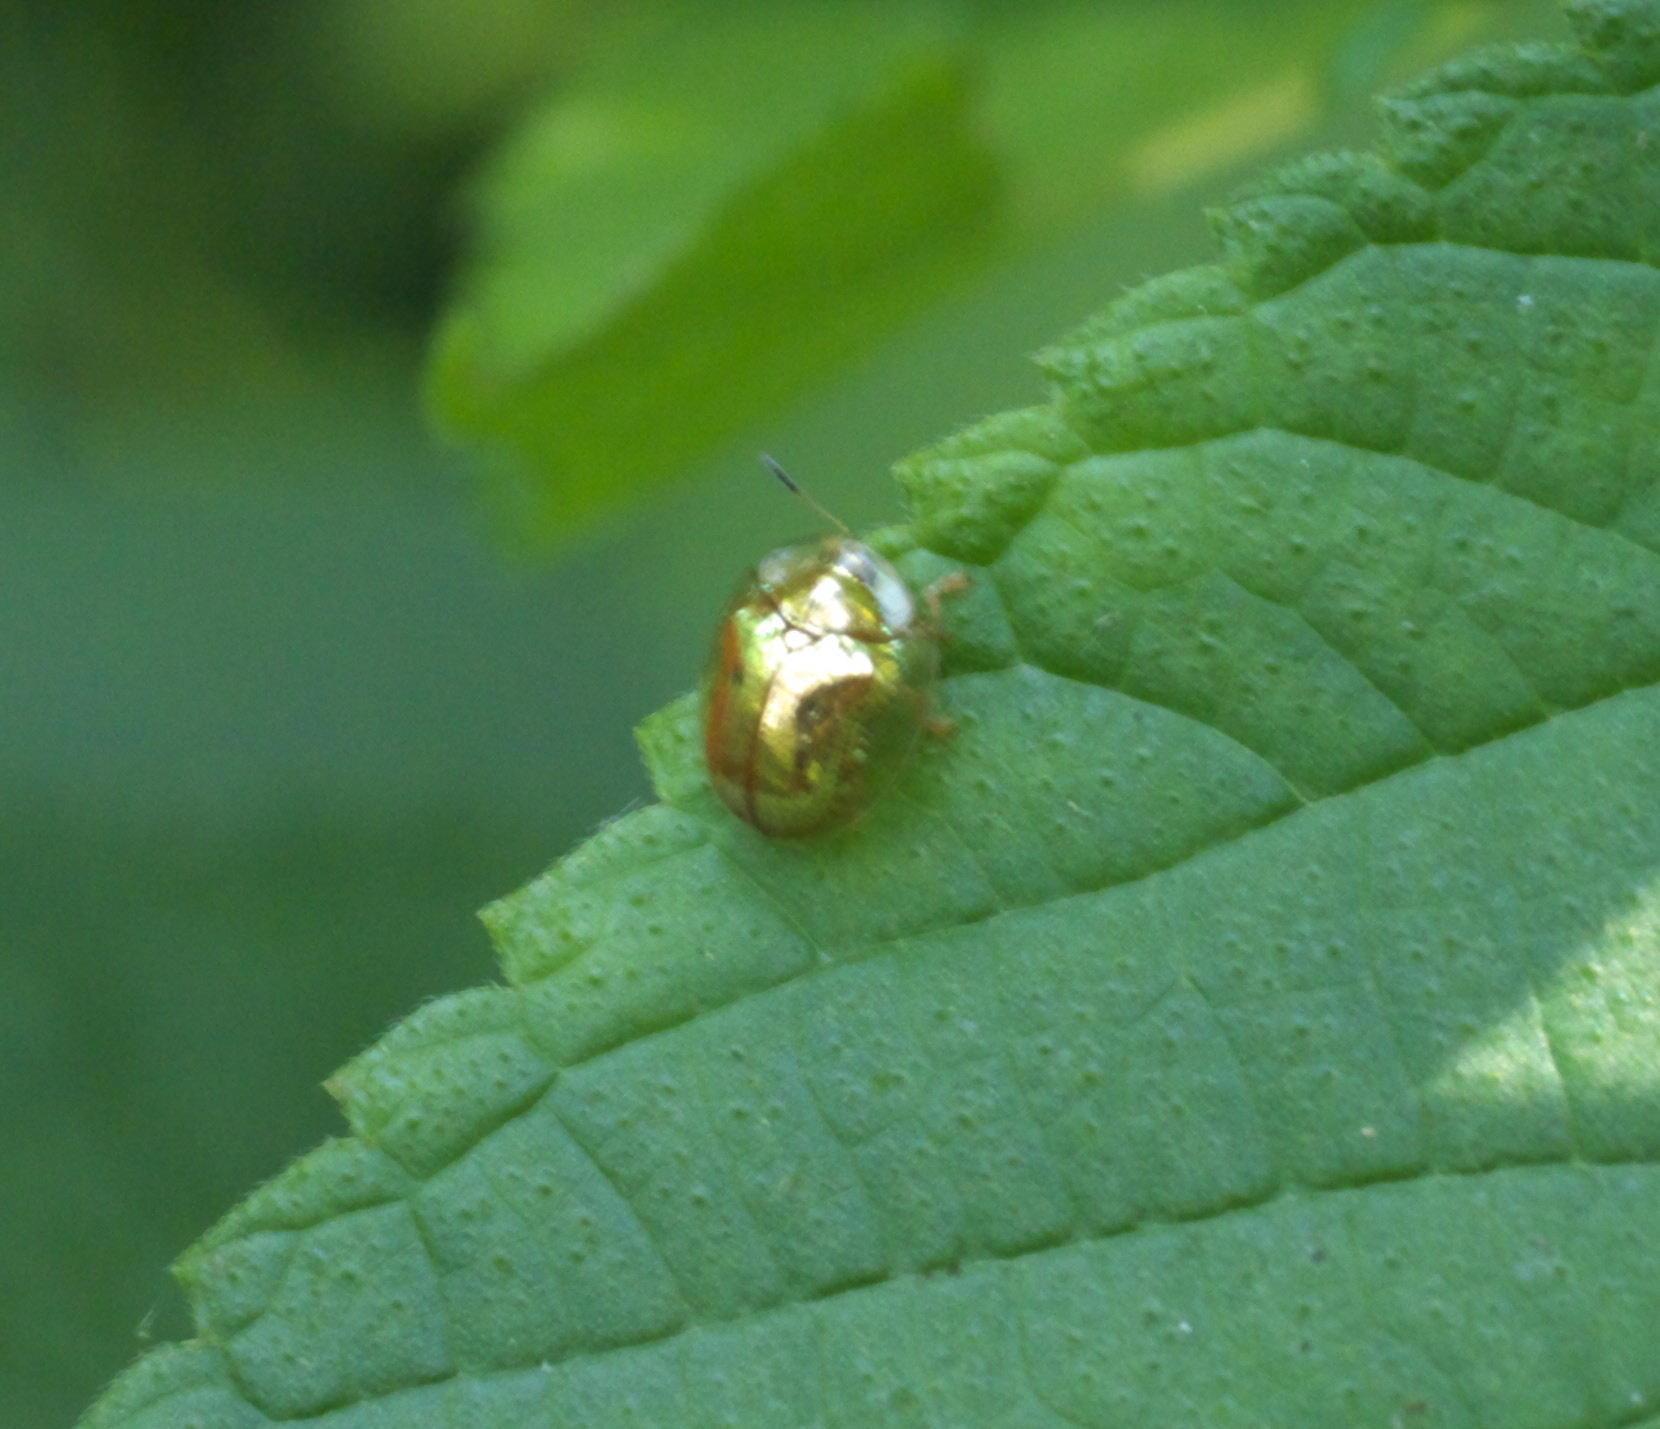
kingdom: Animalia
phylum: Arthropoda
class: Insecta
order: Coleoptera
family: Chrysomelidae
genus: Charidotella
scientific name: Charidotella sexpunctata
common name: Golden tortoise beetle
